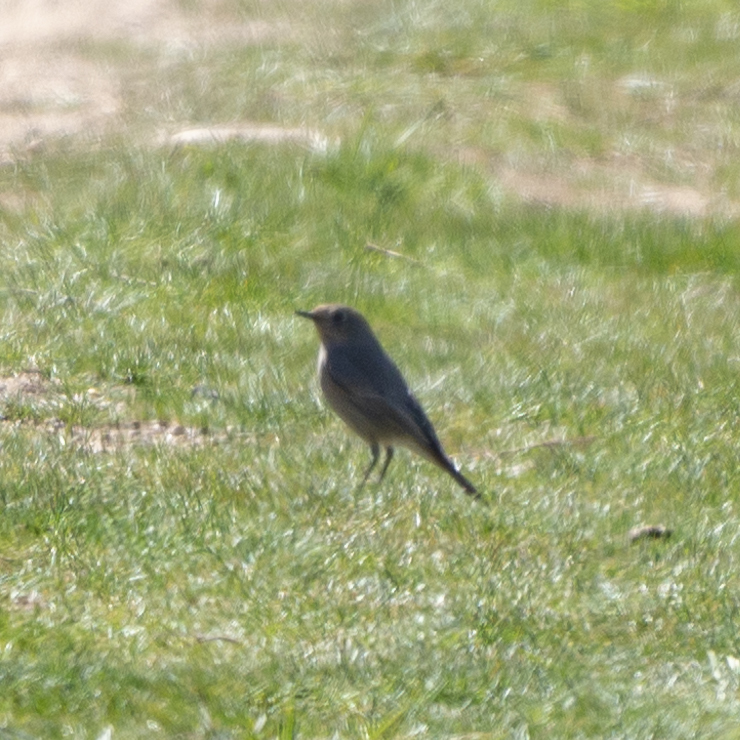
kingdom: Animalia
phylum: Chordata
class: Aves
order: Passeriformes
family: Muscicapidae
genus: Phoenicurus
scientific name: Phoenicurus ochruros
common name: Black redstart
